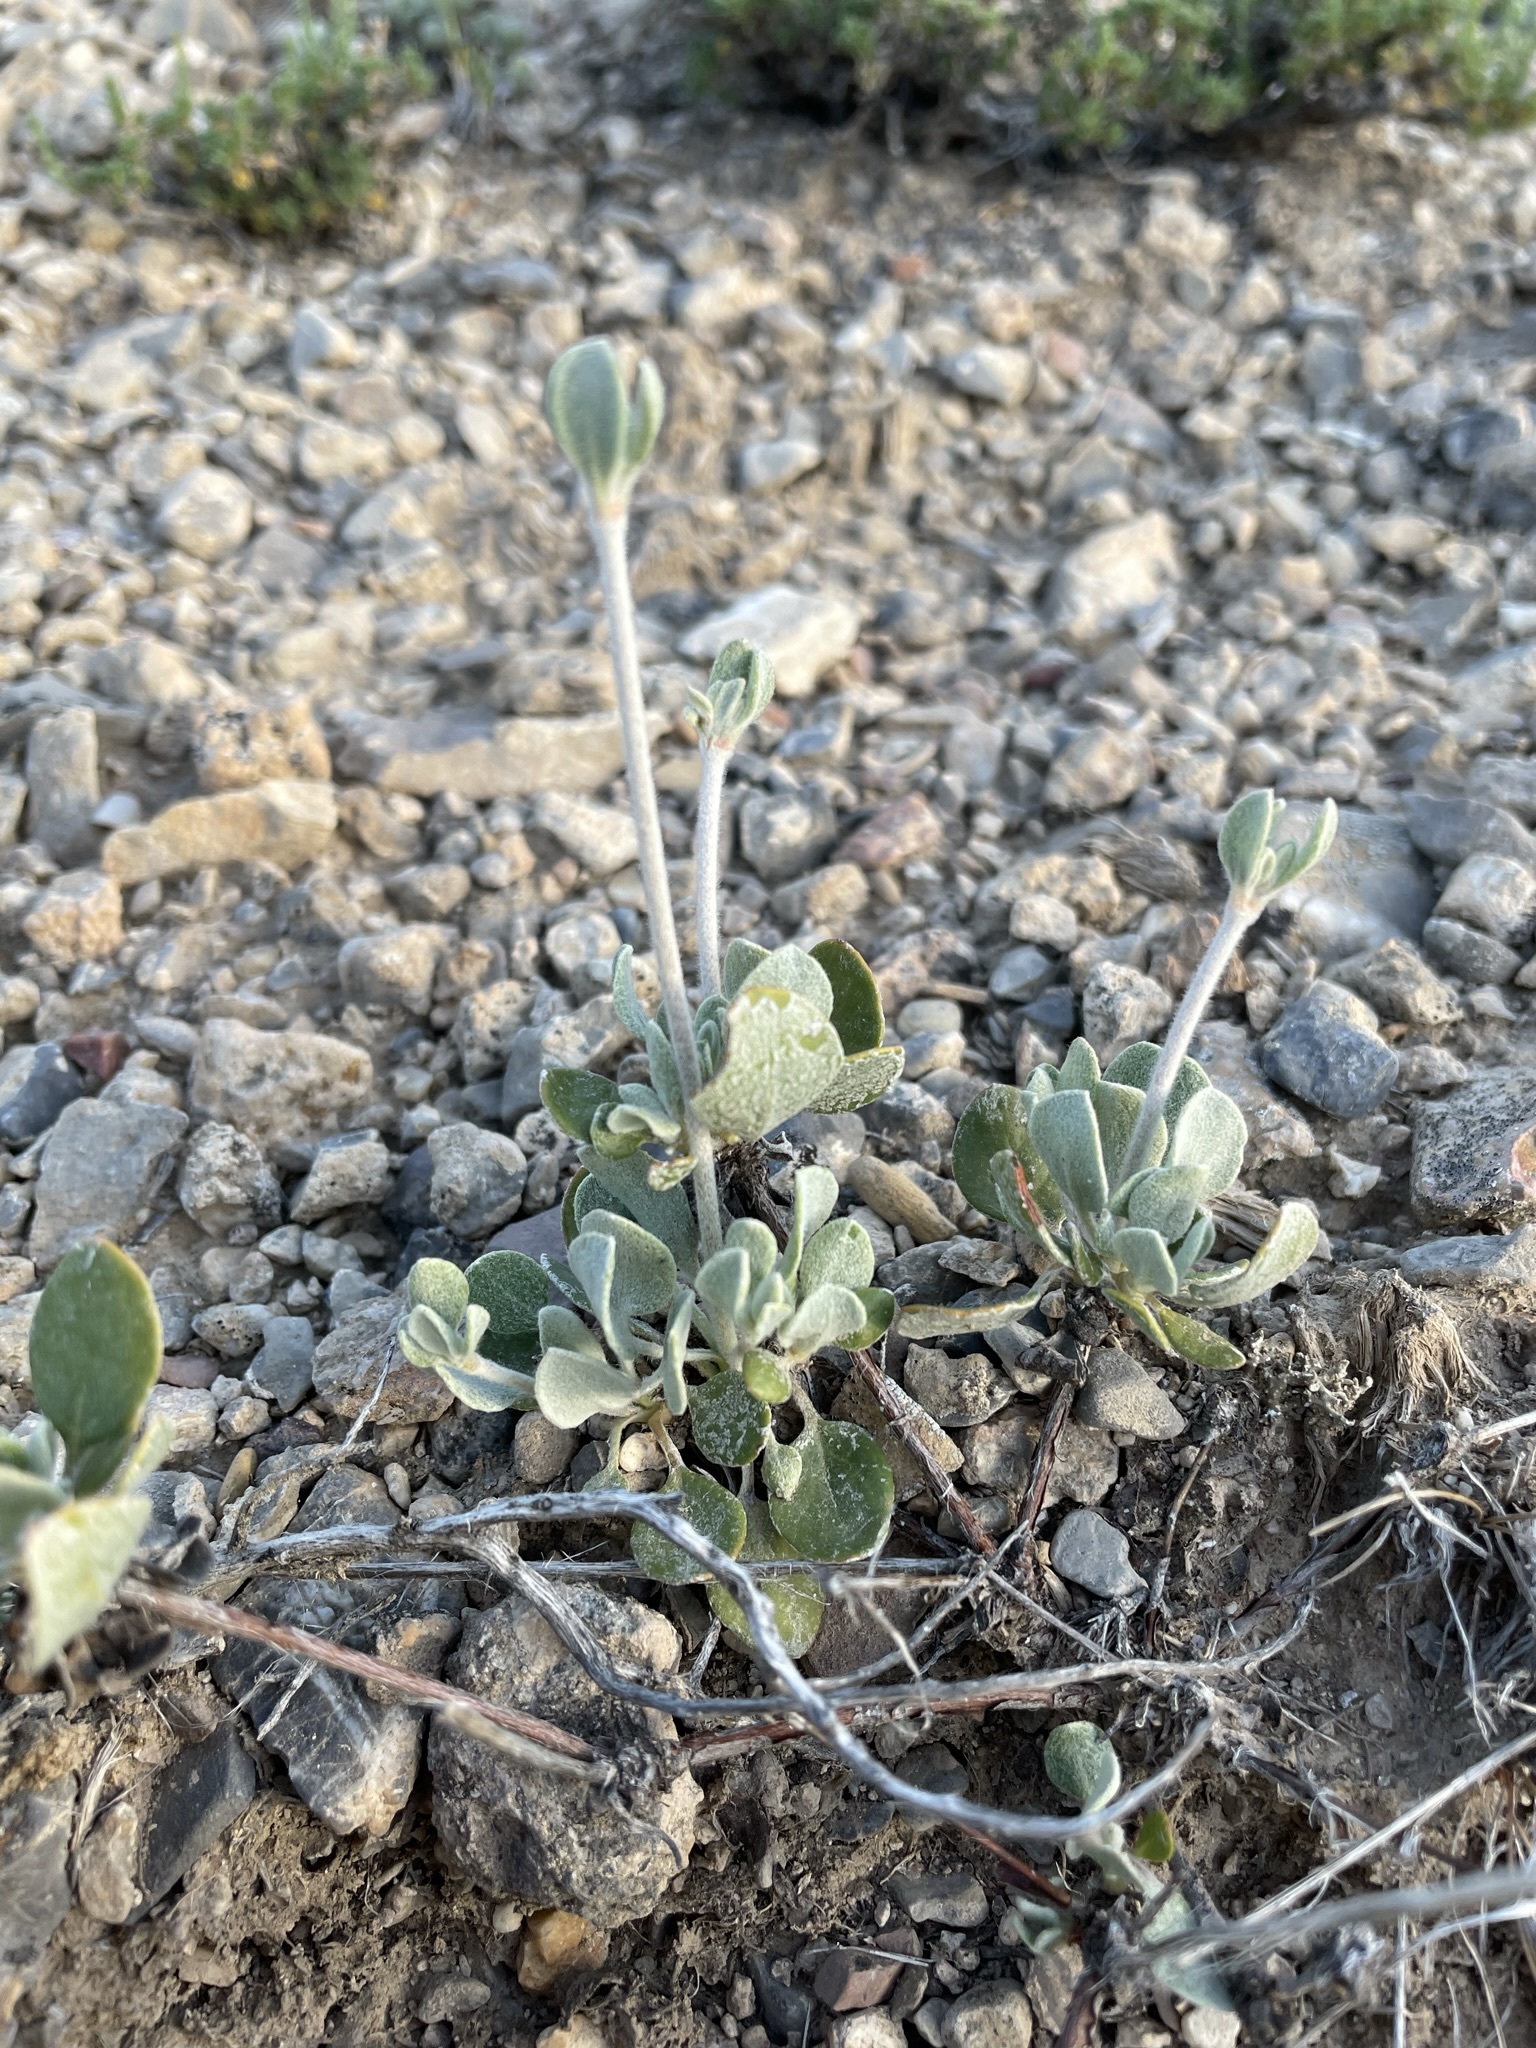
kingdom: Plantae
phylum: Tracheophyta
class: Magnoliopsida
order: Caryophyllales
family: Polygonaceae
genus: Eriogonum
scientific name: Eriogonum umbellatum
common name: Sulfur-buckwheat
